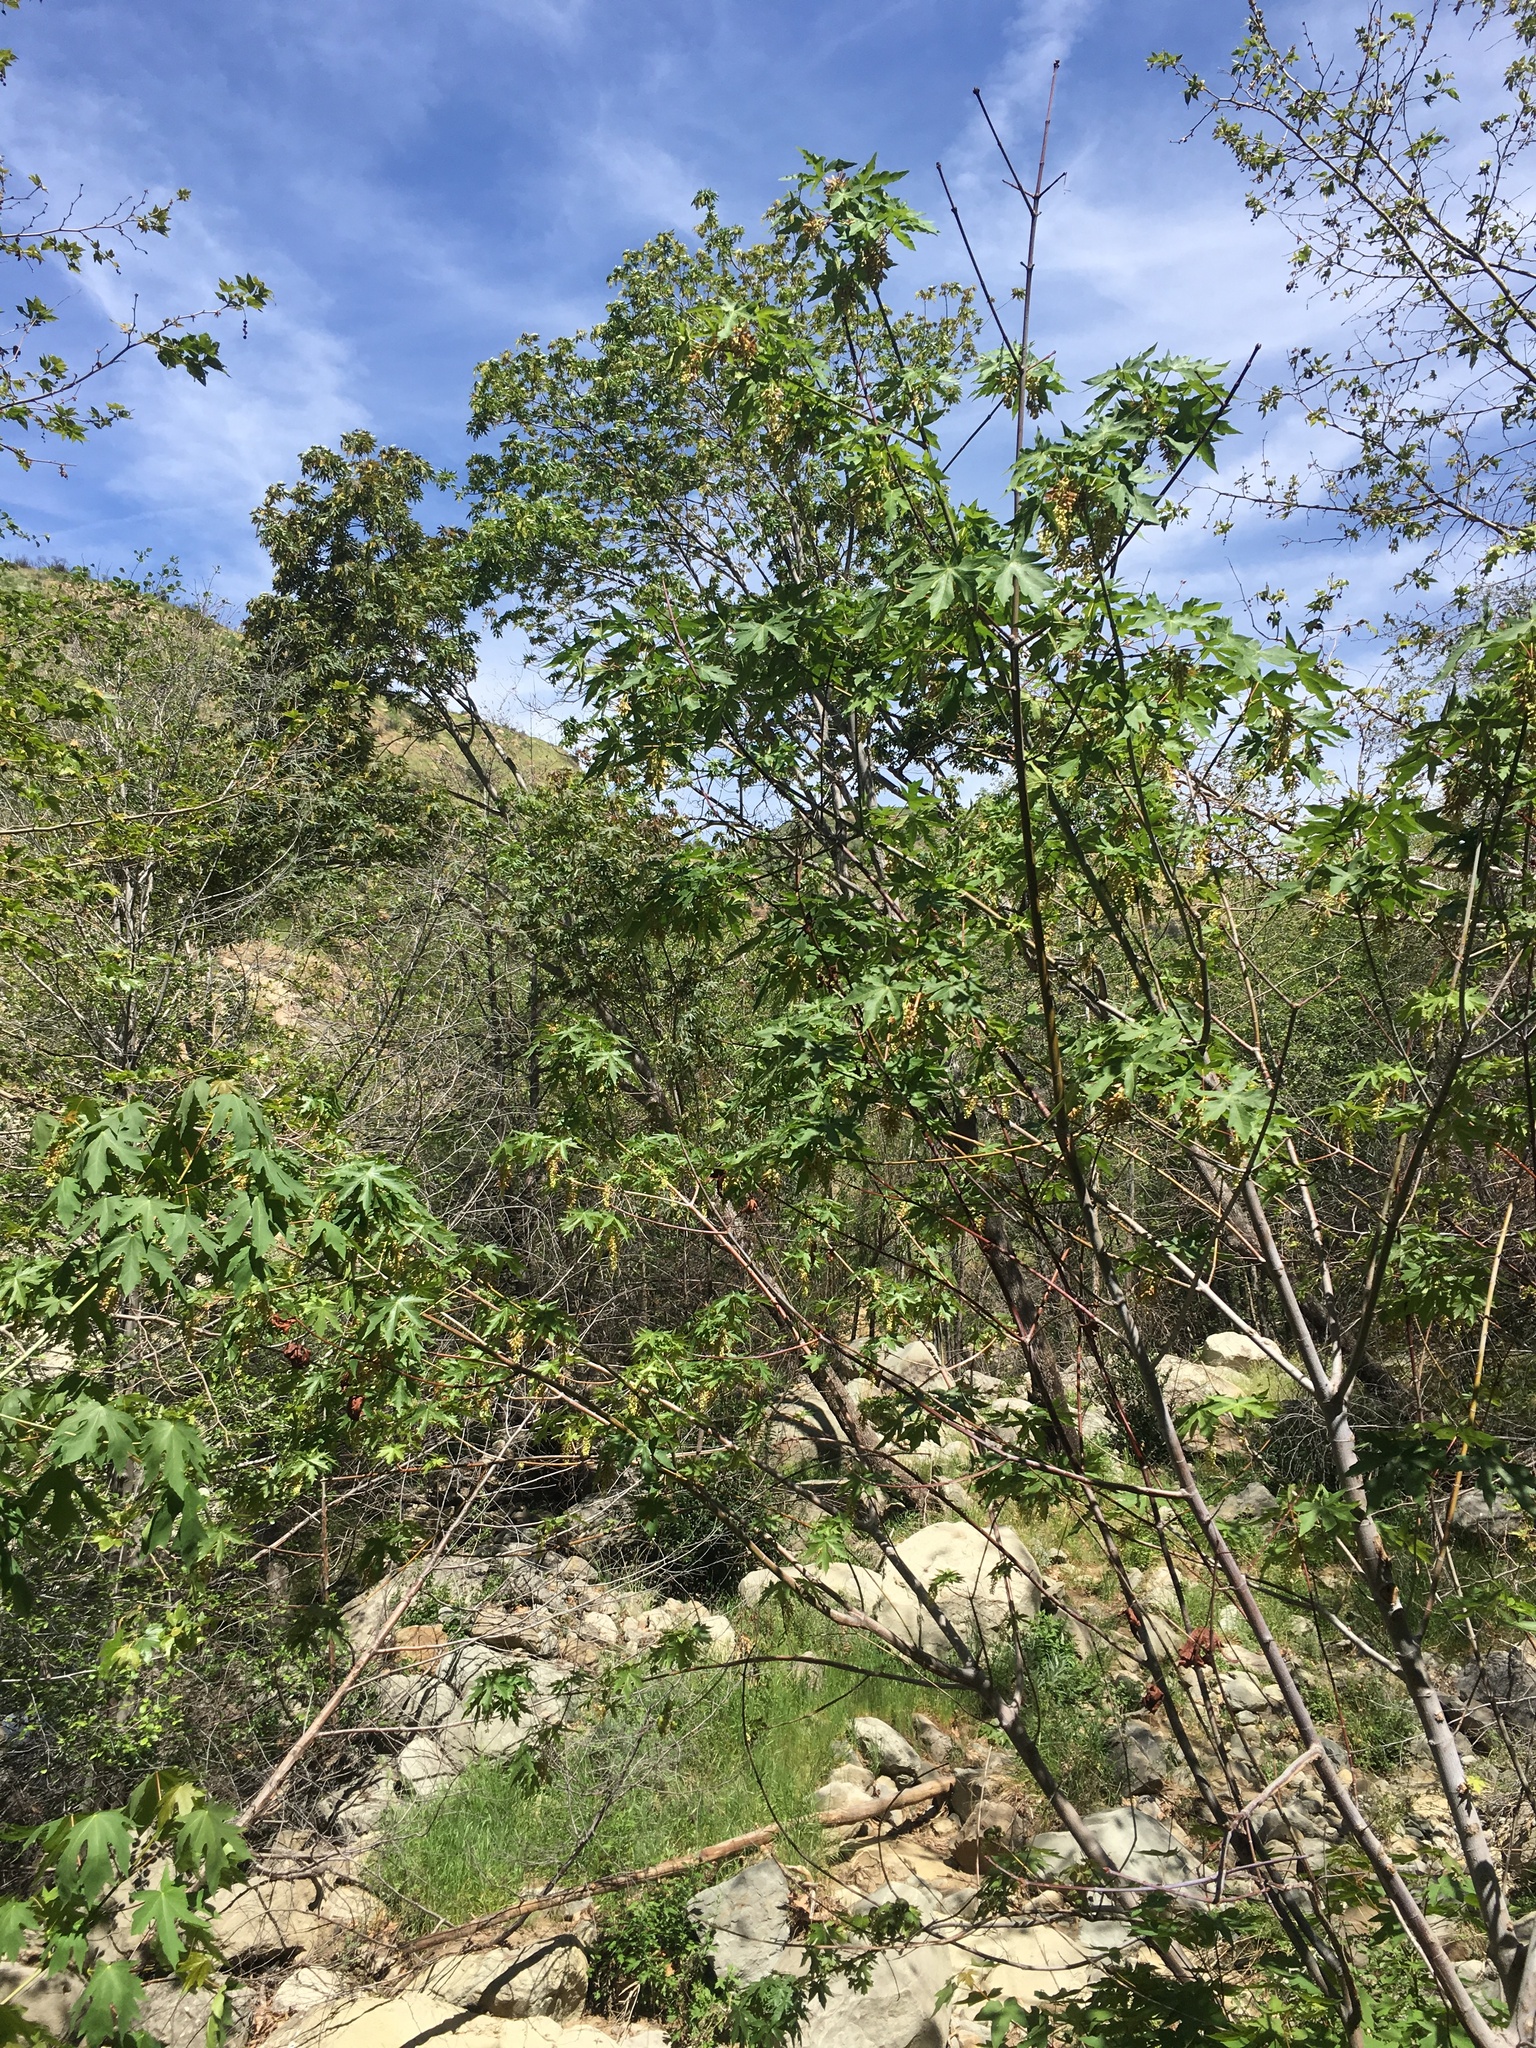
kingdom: Plantae
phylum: Tracheophyta
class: Magnoliopsida
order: Sapindales
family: Sapindaceae
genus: Acer
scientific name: Acer macrophyllum
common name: Oregon maple
